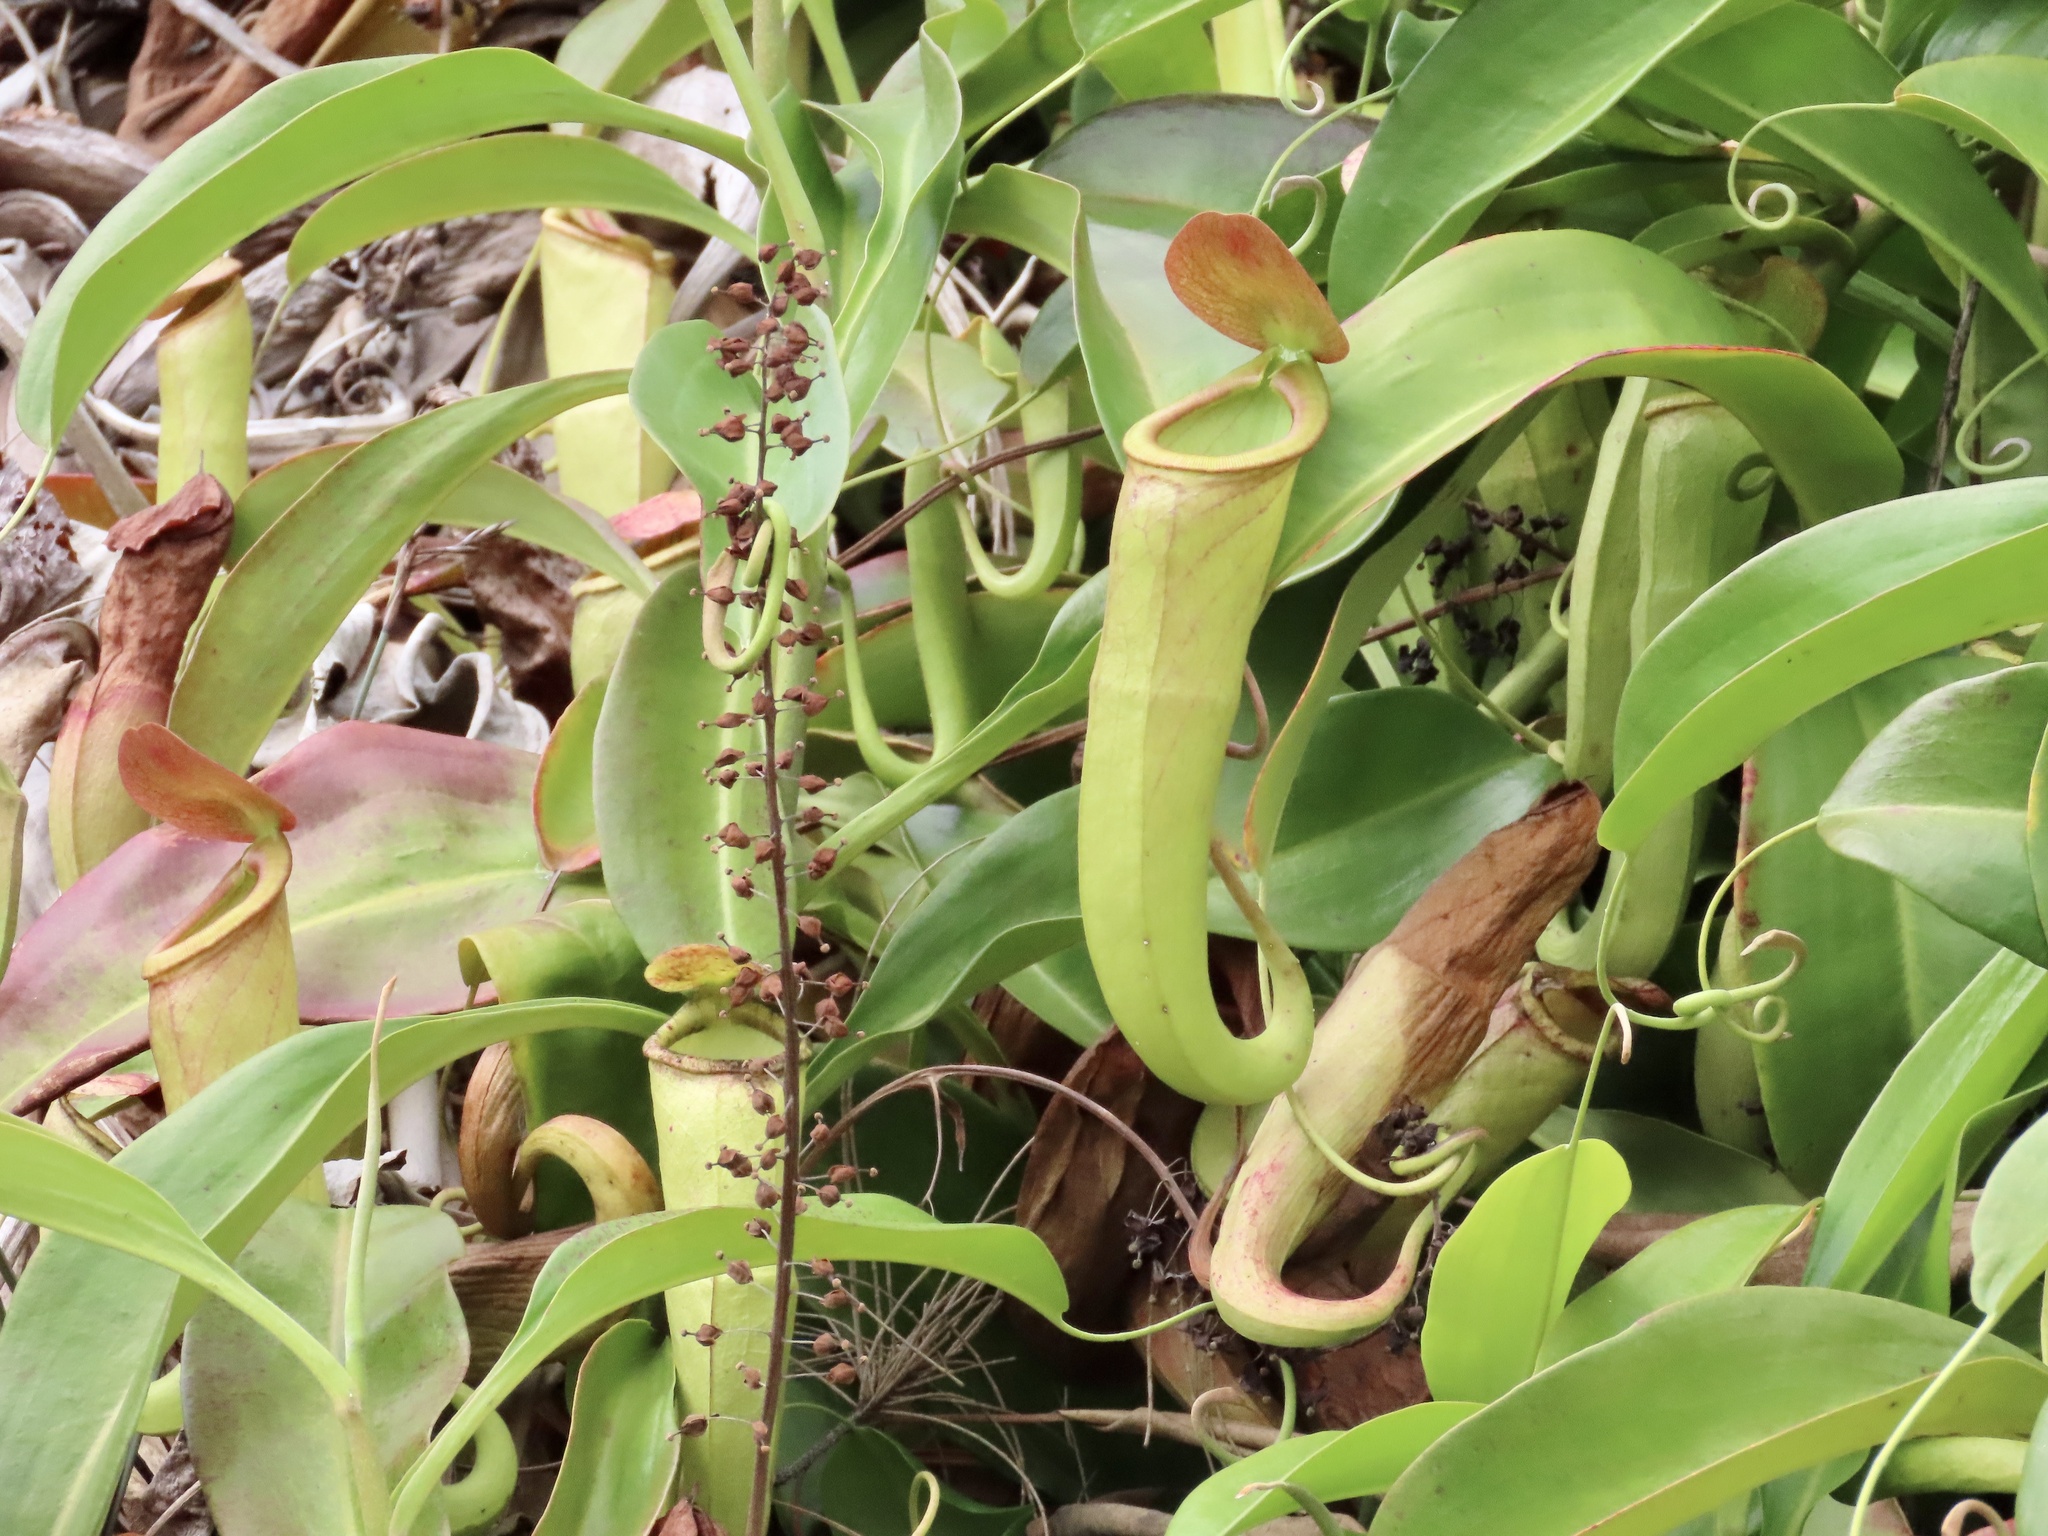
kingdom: Plantae
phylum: Tracheophyta
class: Magnoliopsida
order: Caryophyllales
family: Nepenthaceae
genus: Nepenthes
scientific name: Nepenthes mirabilis
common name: Tropical pitcherplant
